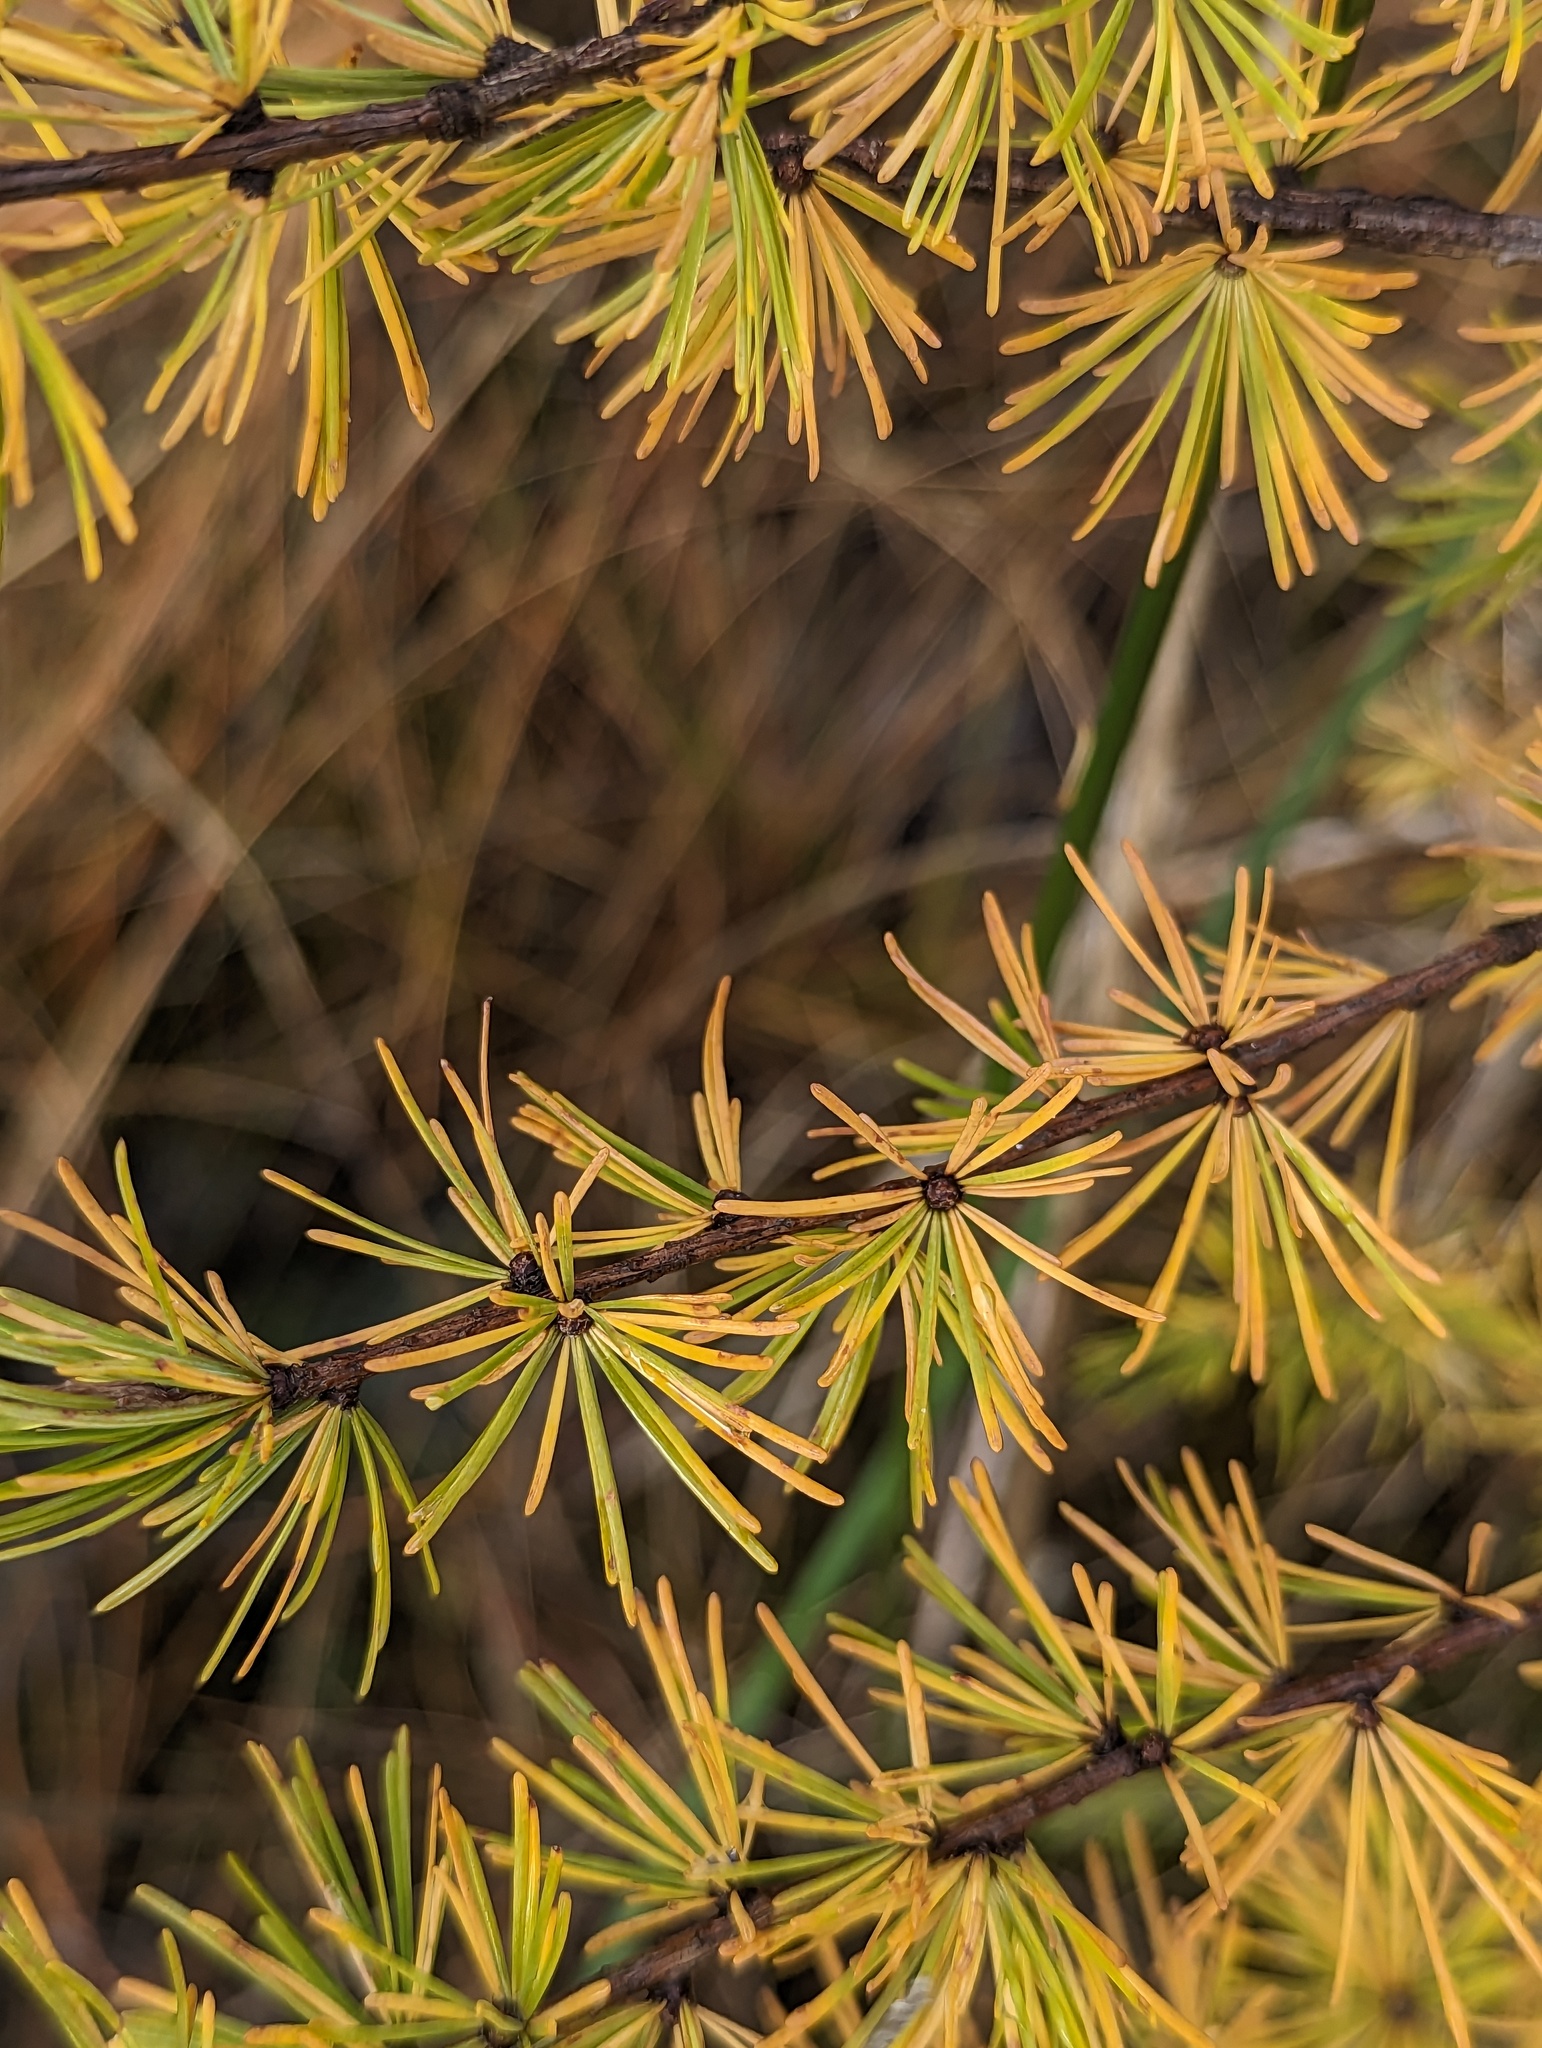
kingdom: Plantae
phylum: Tracheophyta
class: Pinopsida
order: Pinales
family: Pinaceae
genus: Larix
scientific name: Larix laricina
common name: American larch
